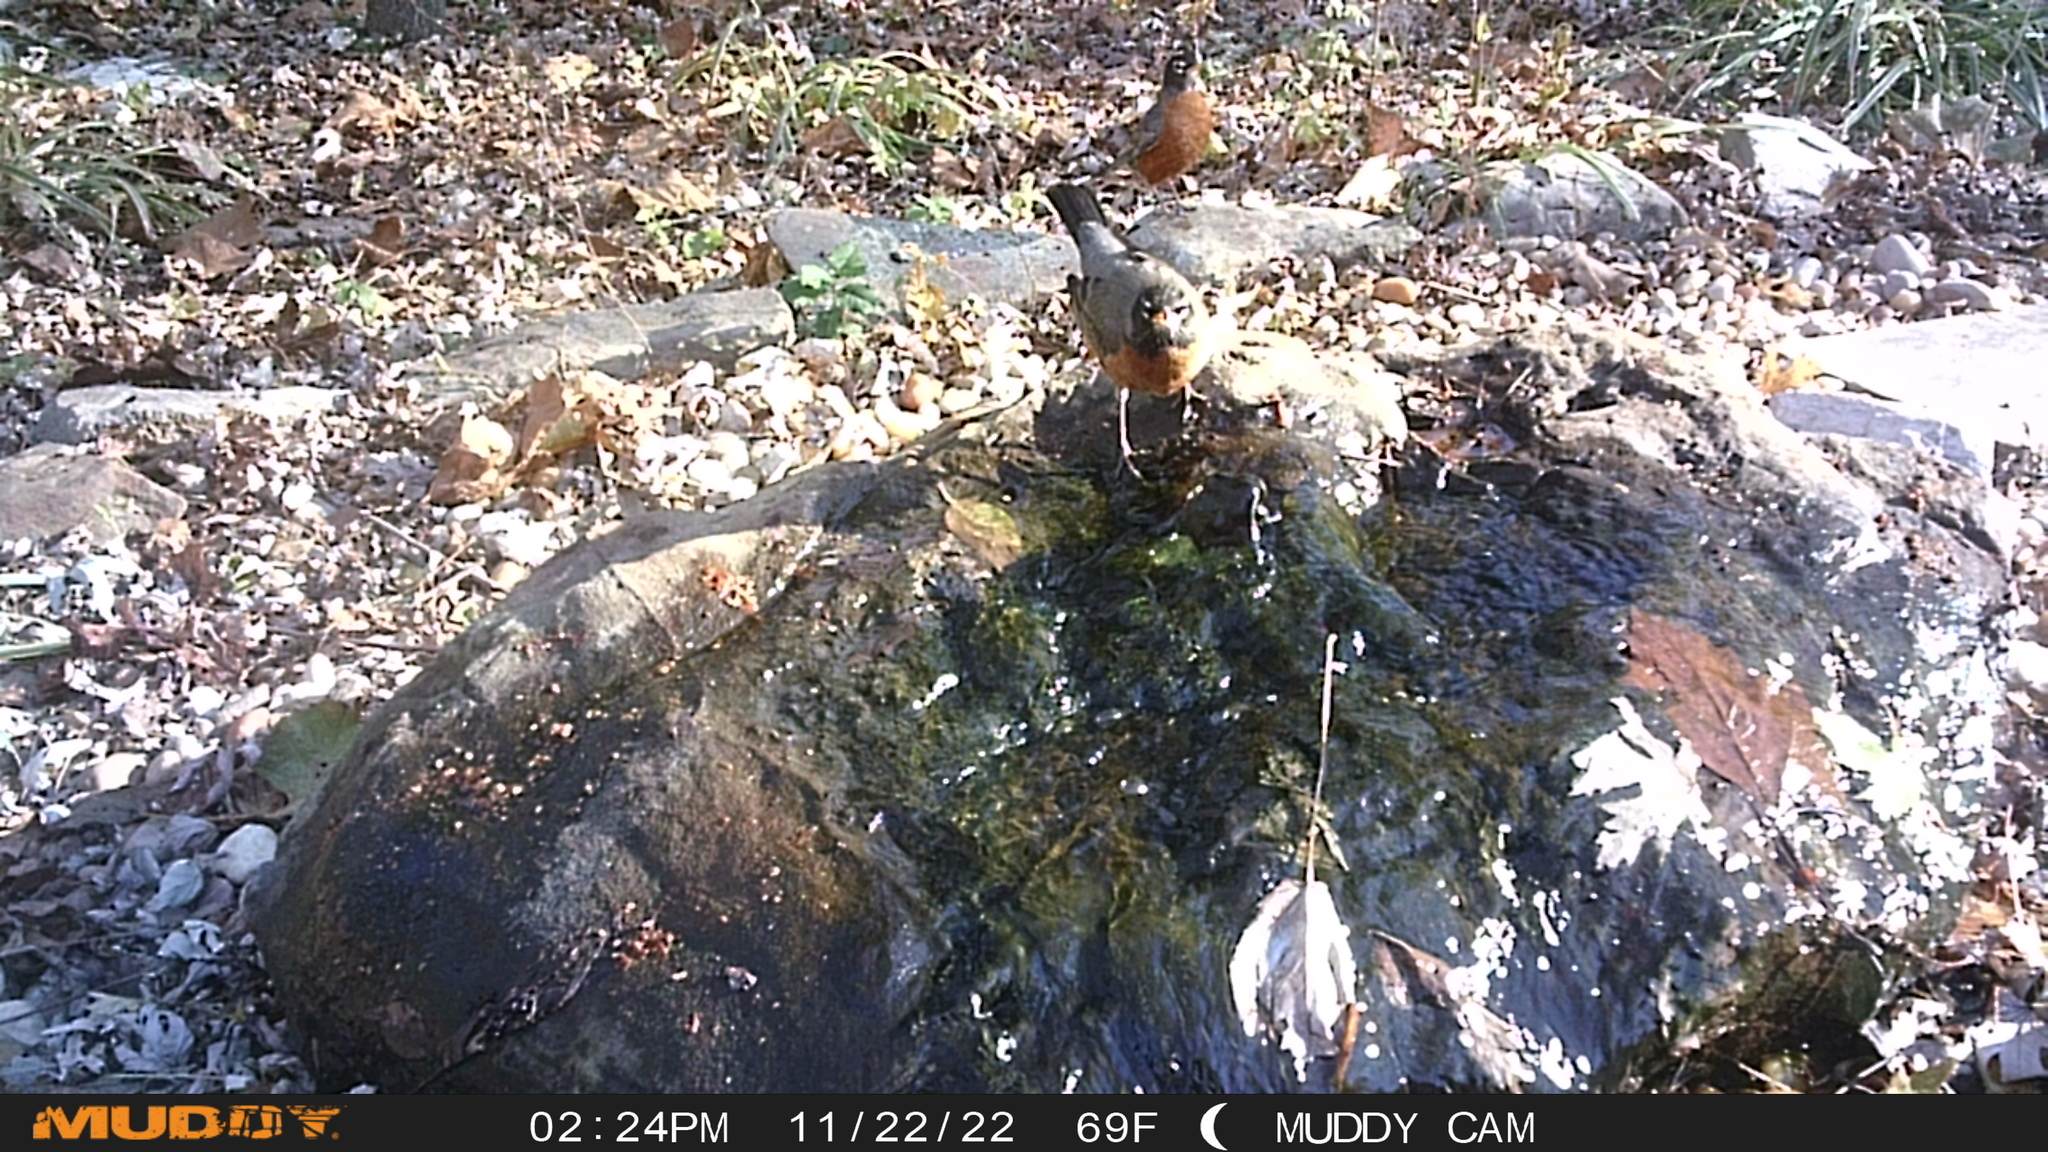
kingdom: Animalia
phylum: Chordata
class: Aves
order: Passeriformes
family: Turdidae
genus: Turdus
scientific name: Turdus migratorius
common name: American robin
